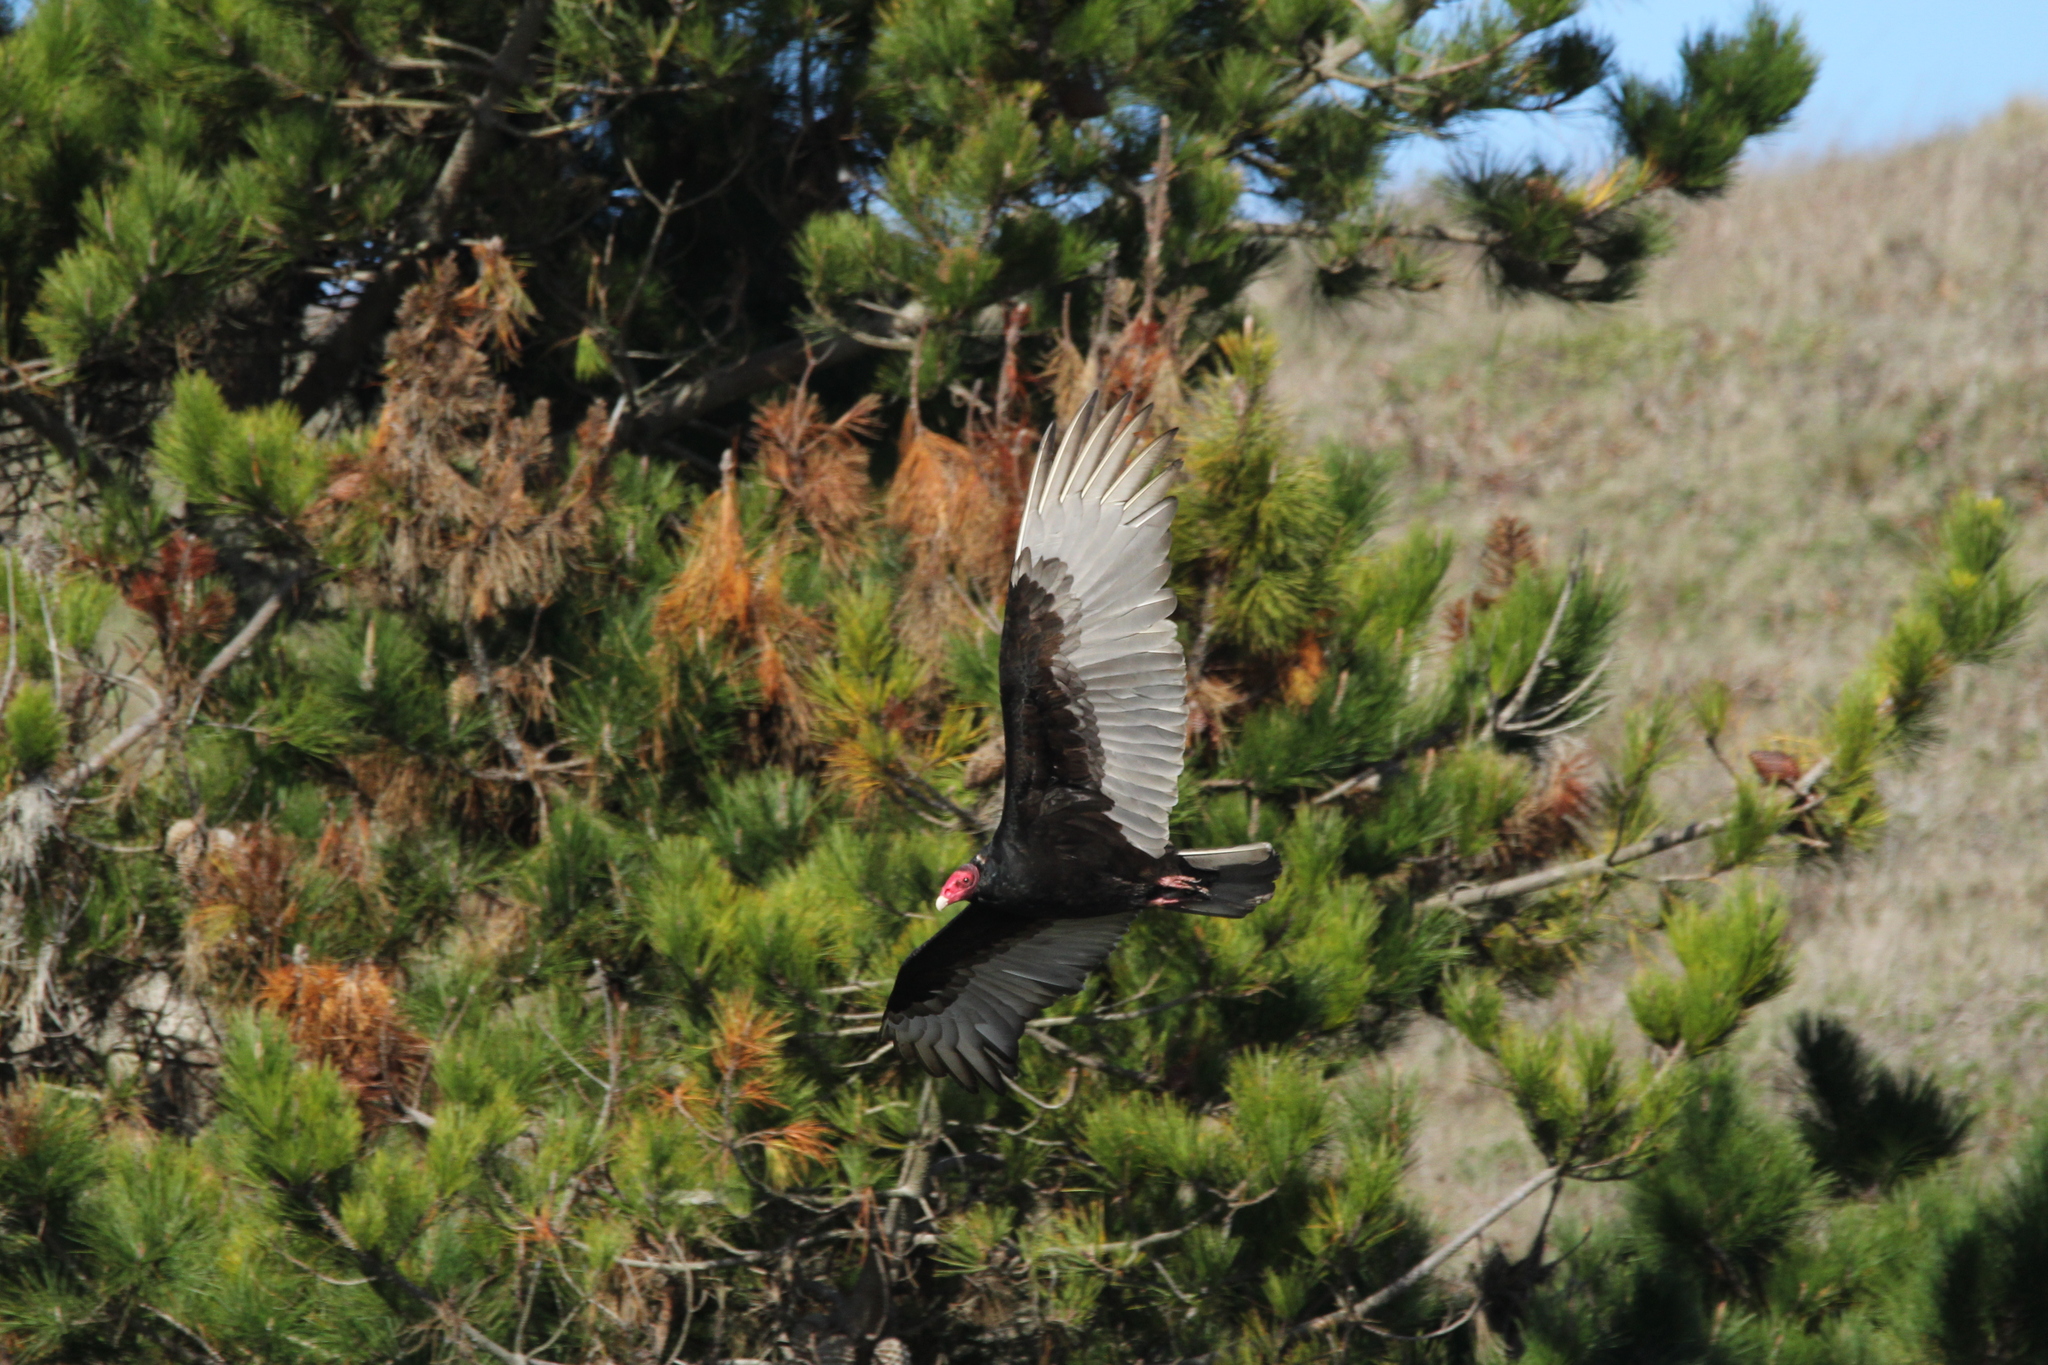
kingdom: Animalia
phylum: Chordata
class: Aves
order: Accipitriformes
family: Cathartidae
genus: Cathartes
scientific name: Cathartes aura
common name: Turkey vulture
